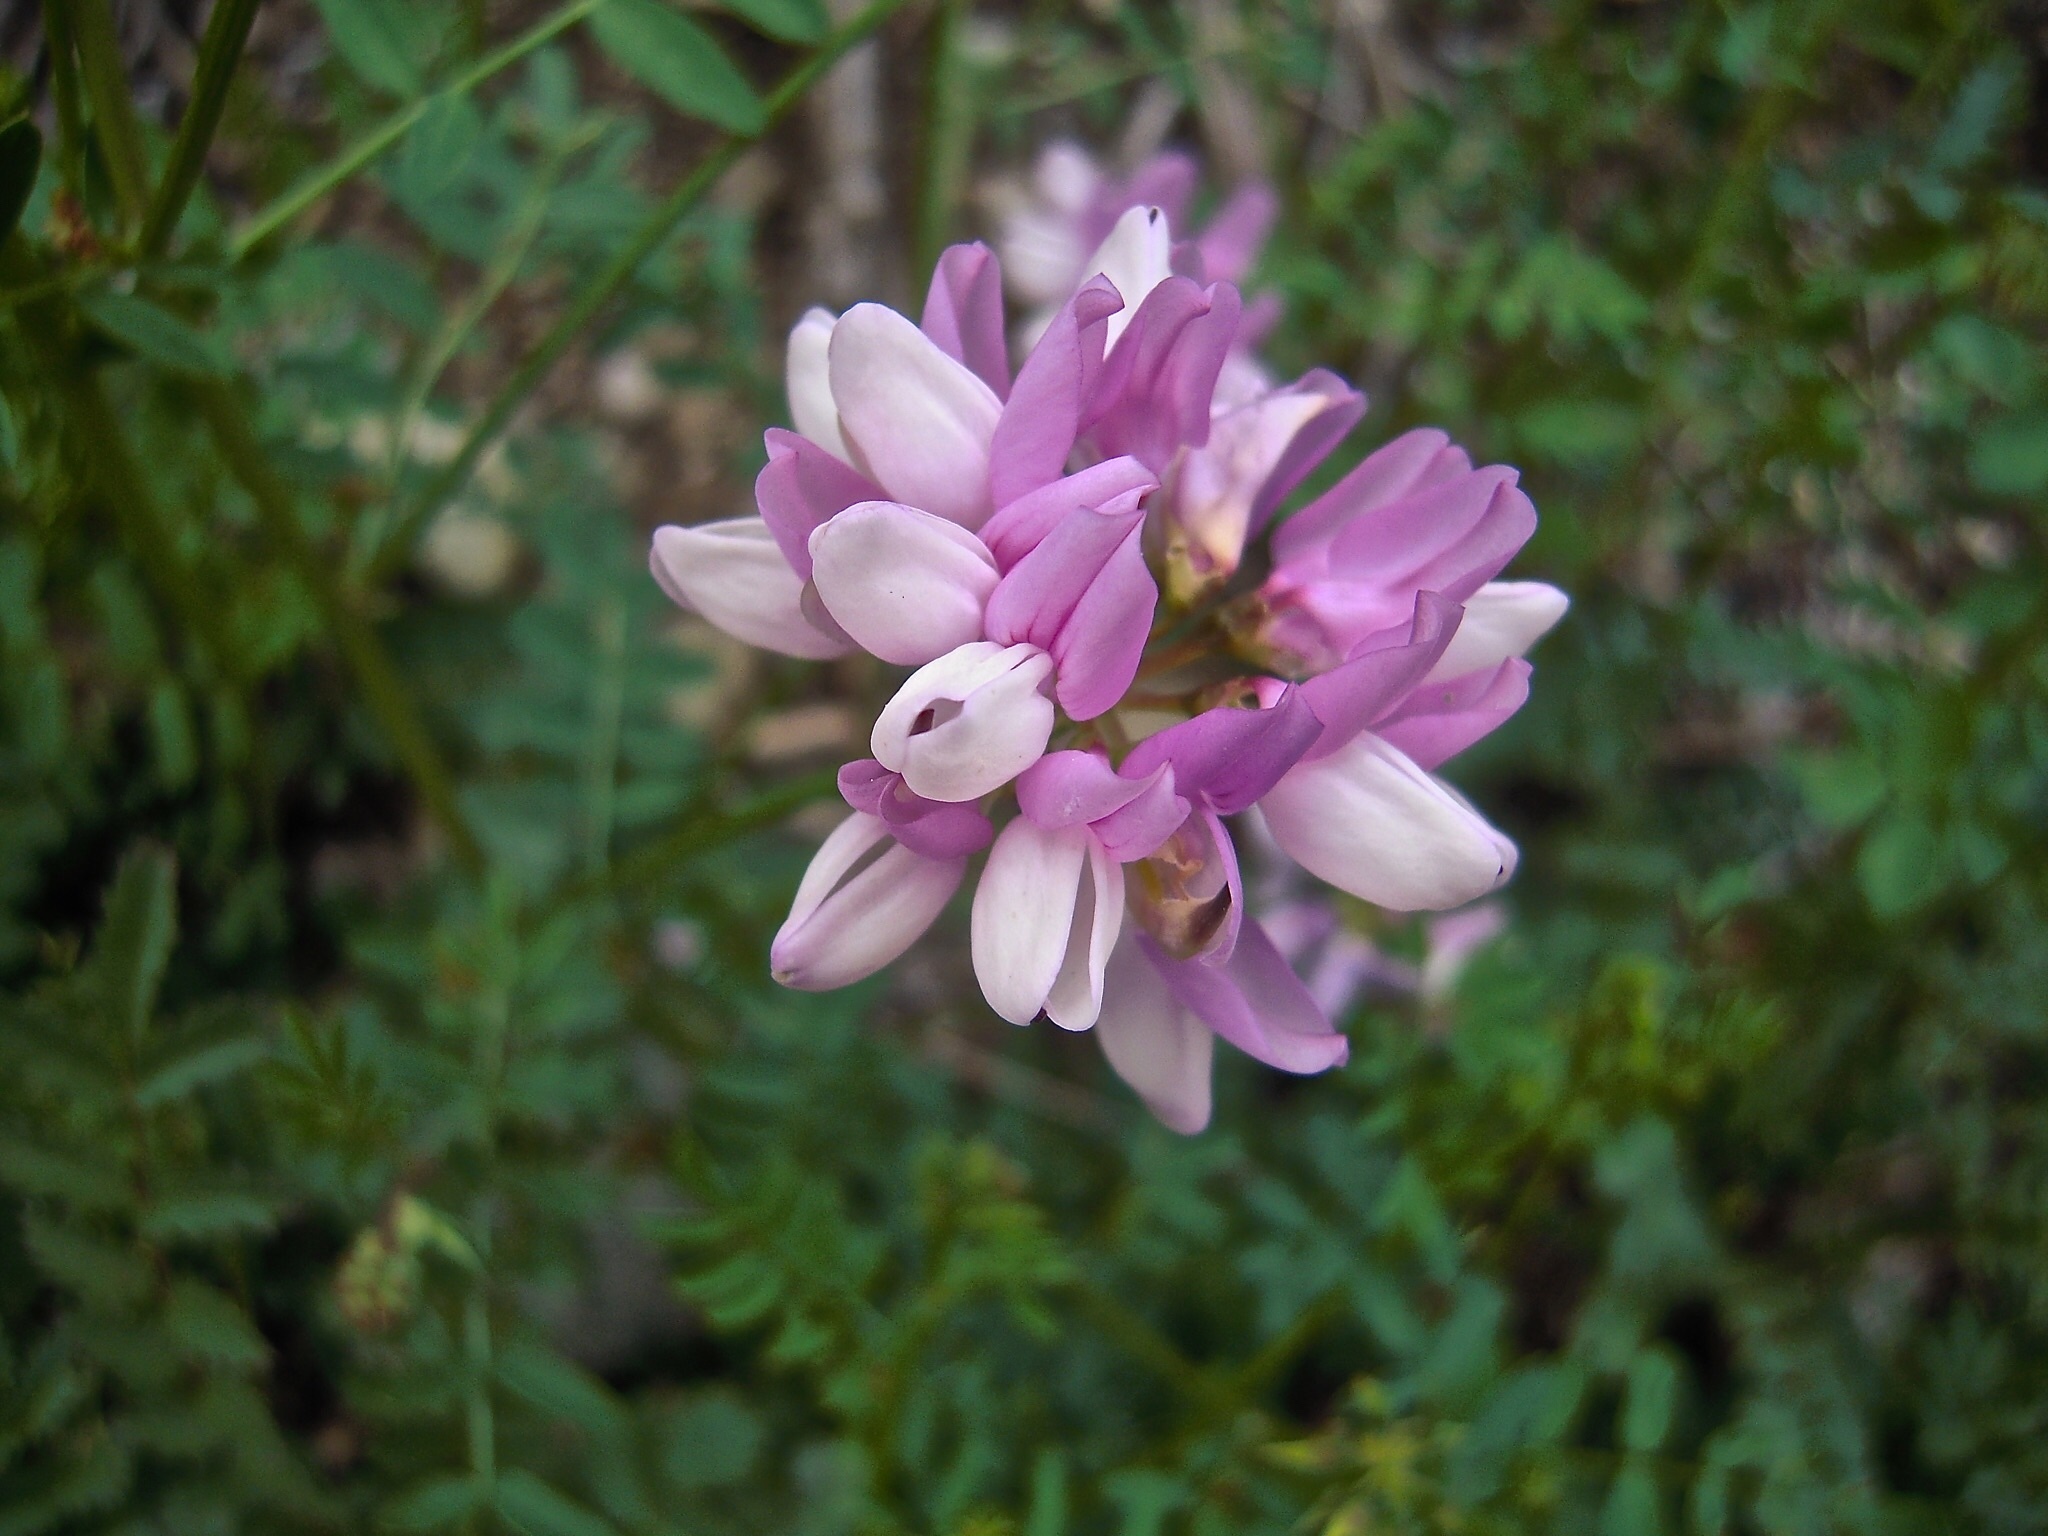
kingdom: Plantae
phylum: Tracheophyta
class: Magnoliopsida
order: Fabales
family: Fabaceae
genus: Coronilla
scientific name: Coronilla varia
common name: Crownvetch
